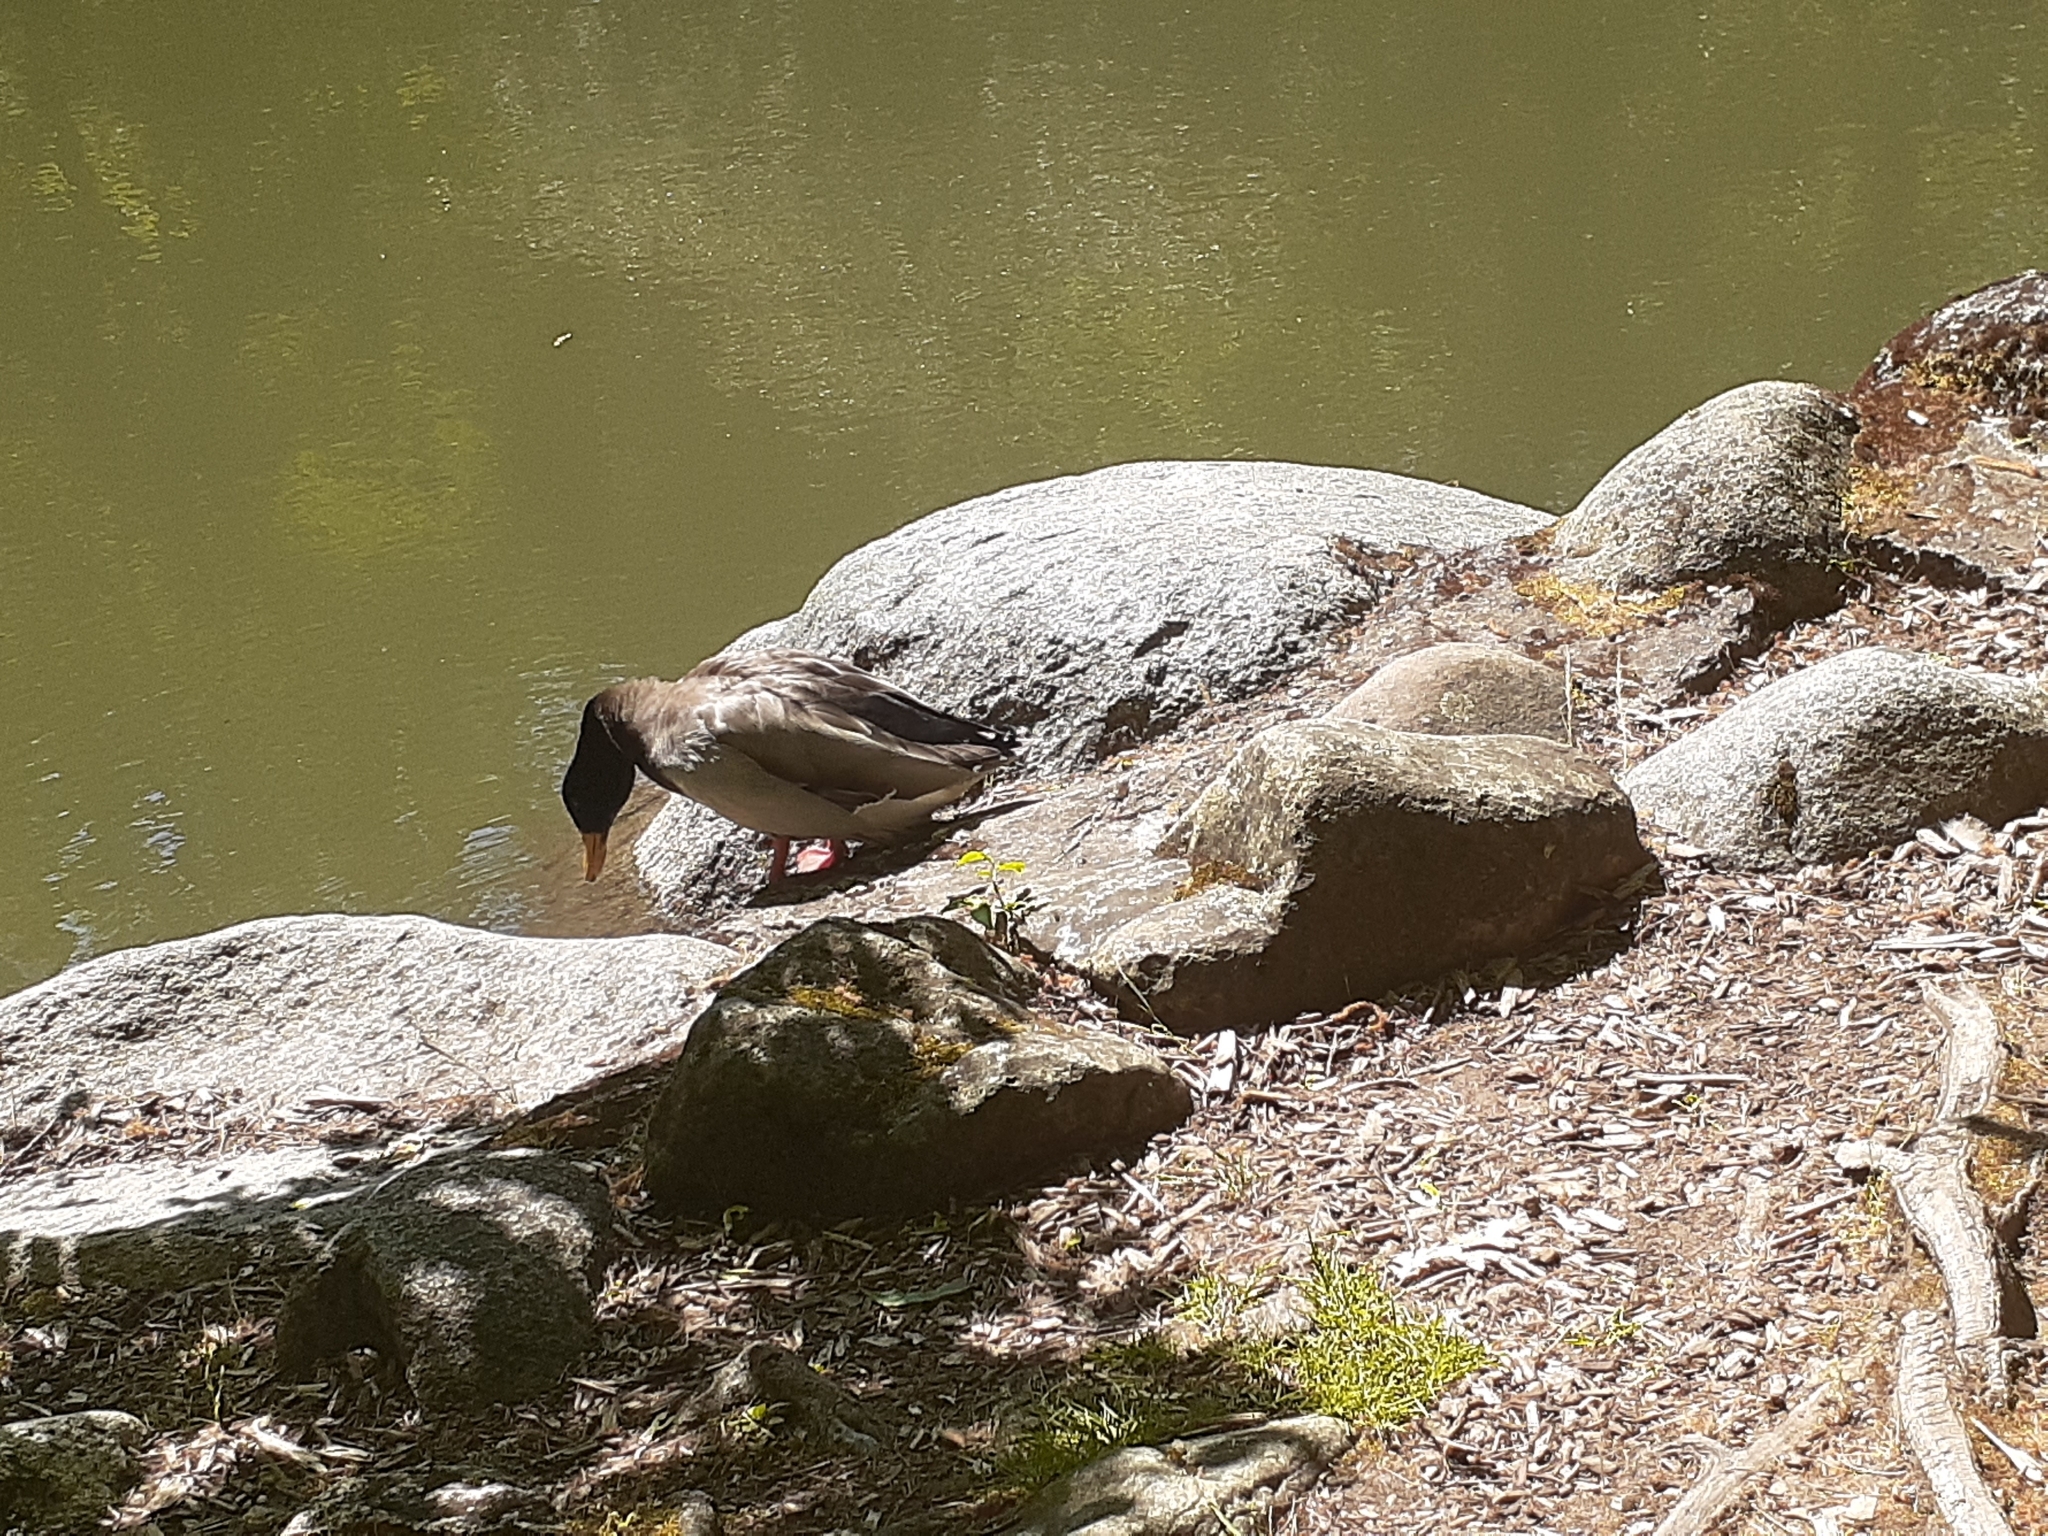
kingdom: Animalia
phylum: Chordata
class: Aves
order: Anseriformes
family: Anatidae
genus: Anas
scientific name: Anas platyrhynchos
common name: Mallard
